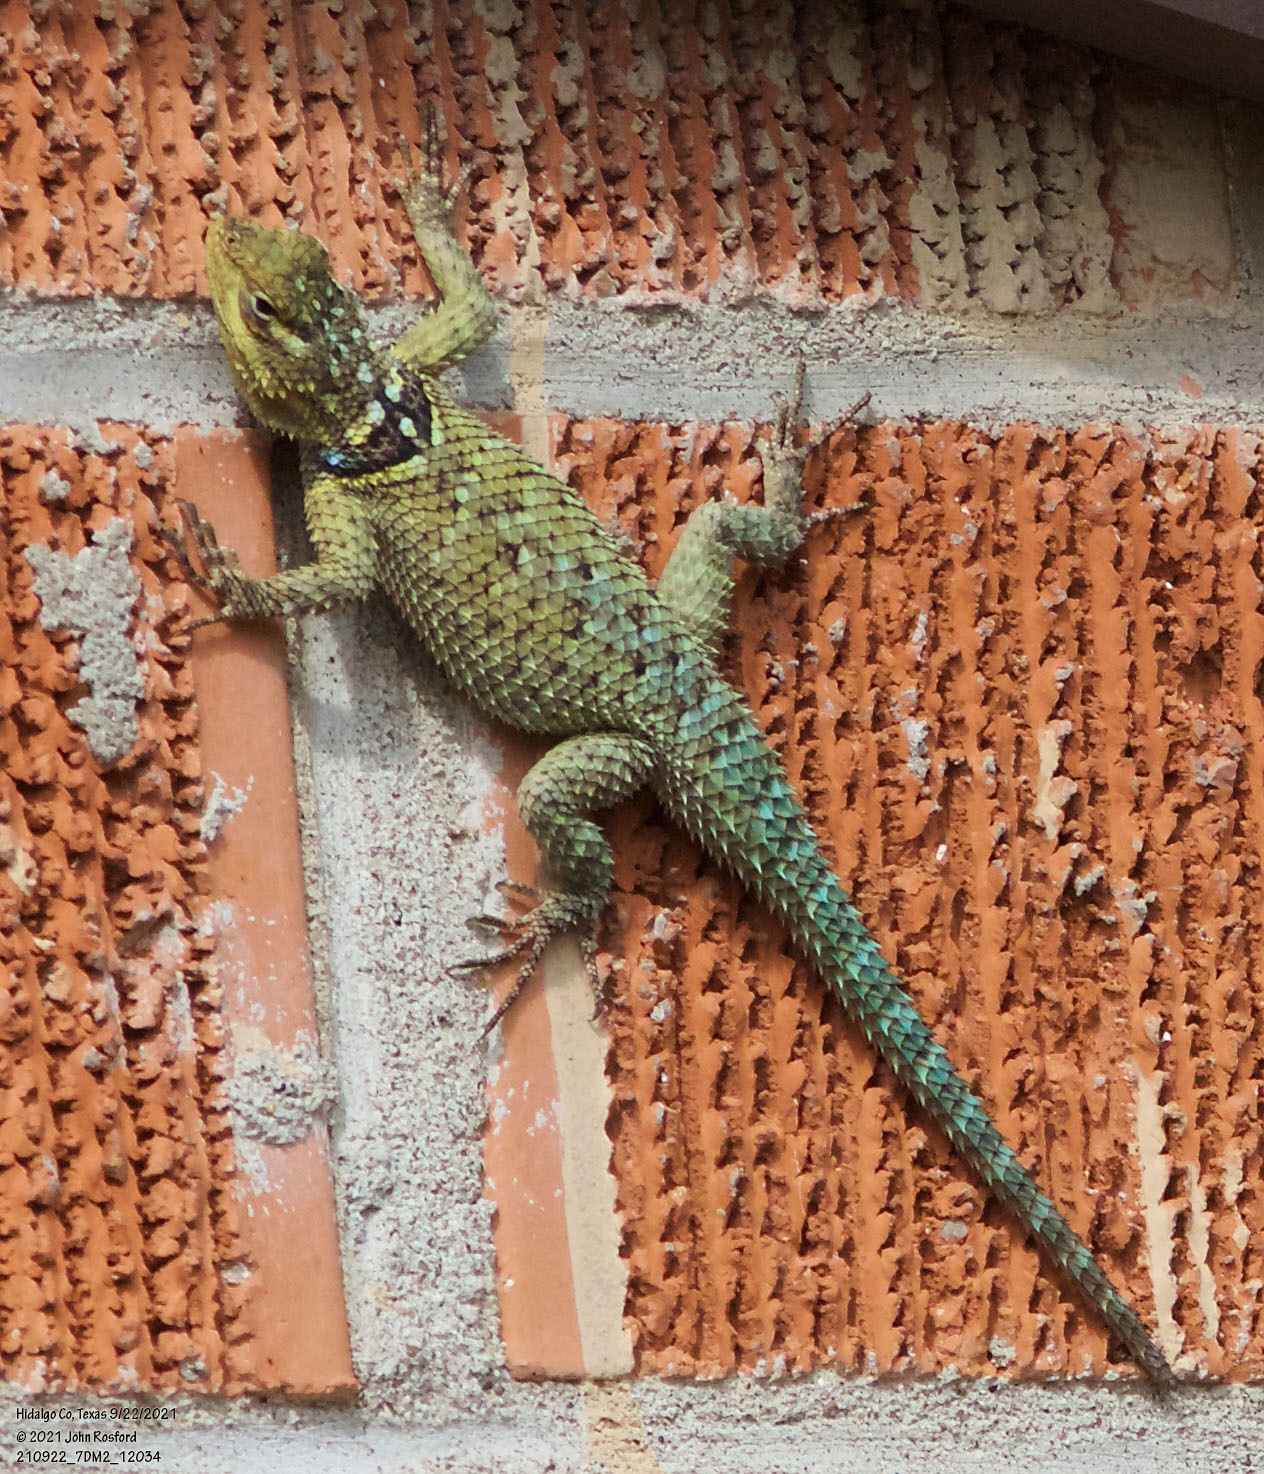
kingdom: Animalia
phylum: Chordata
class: Squamata
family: Phrynosomatidae
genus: Sceloporus
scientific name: Sceloporus cyanogenys
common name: Blue spiny lizard
